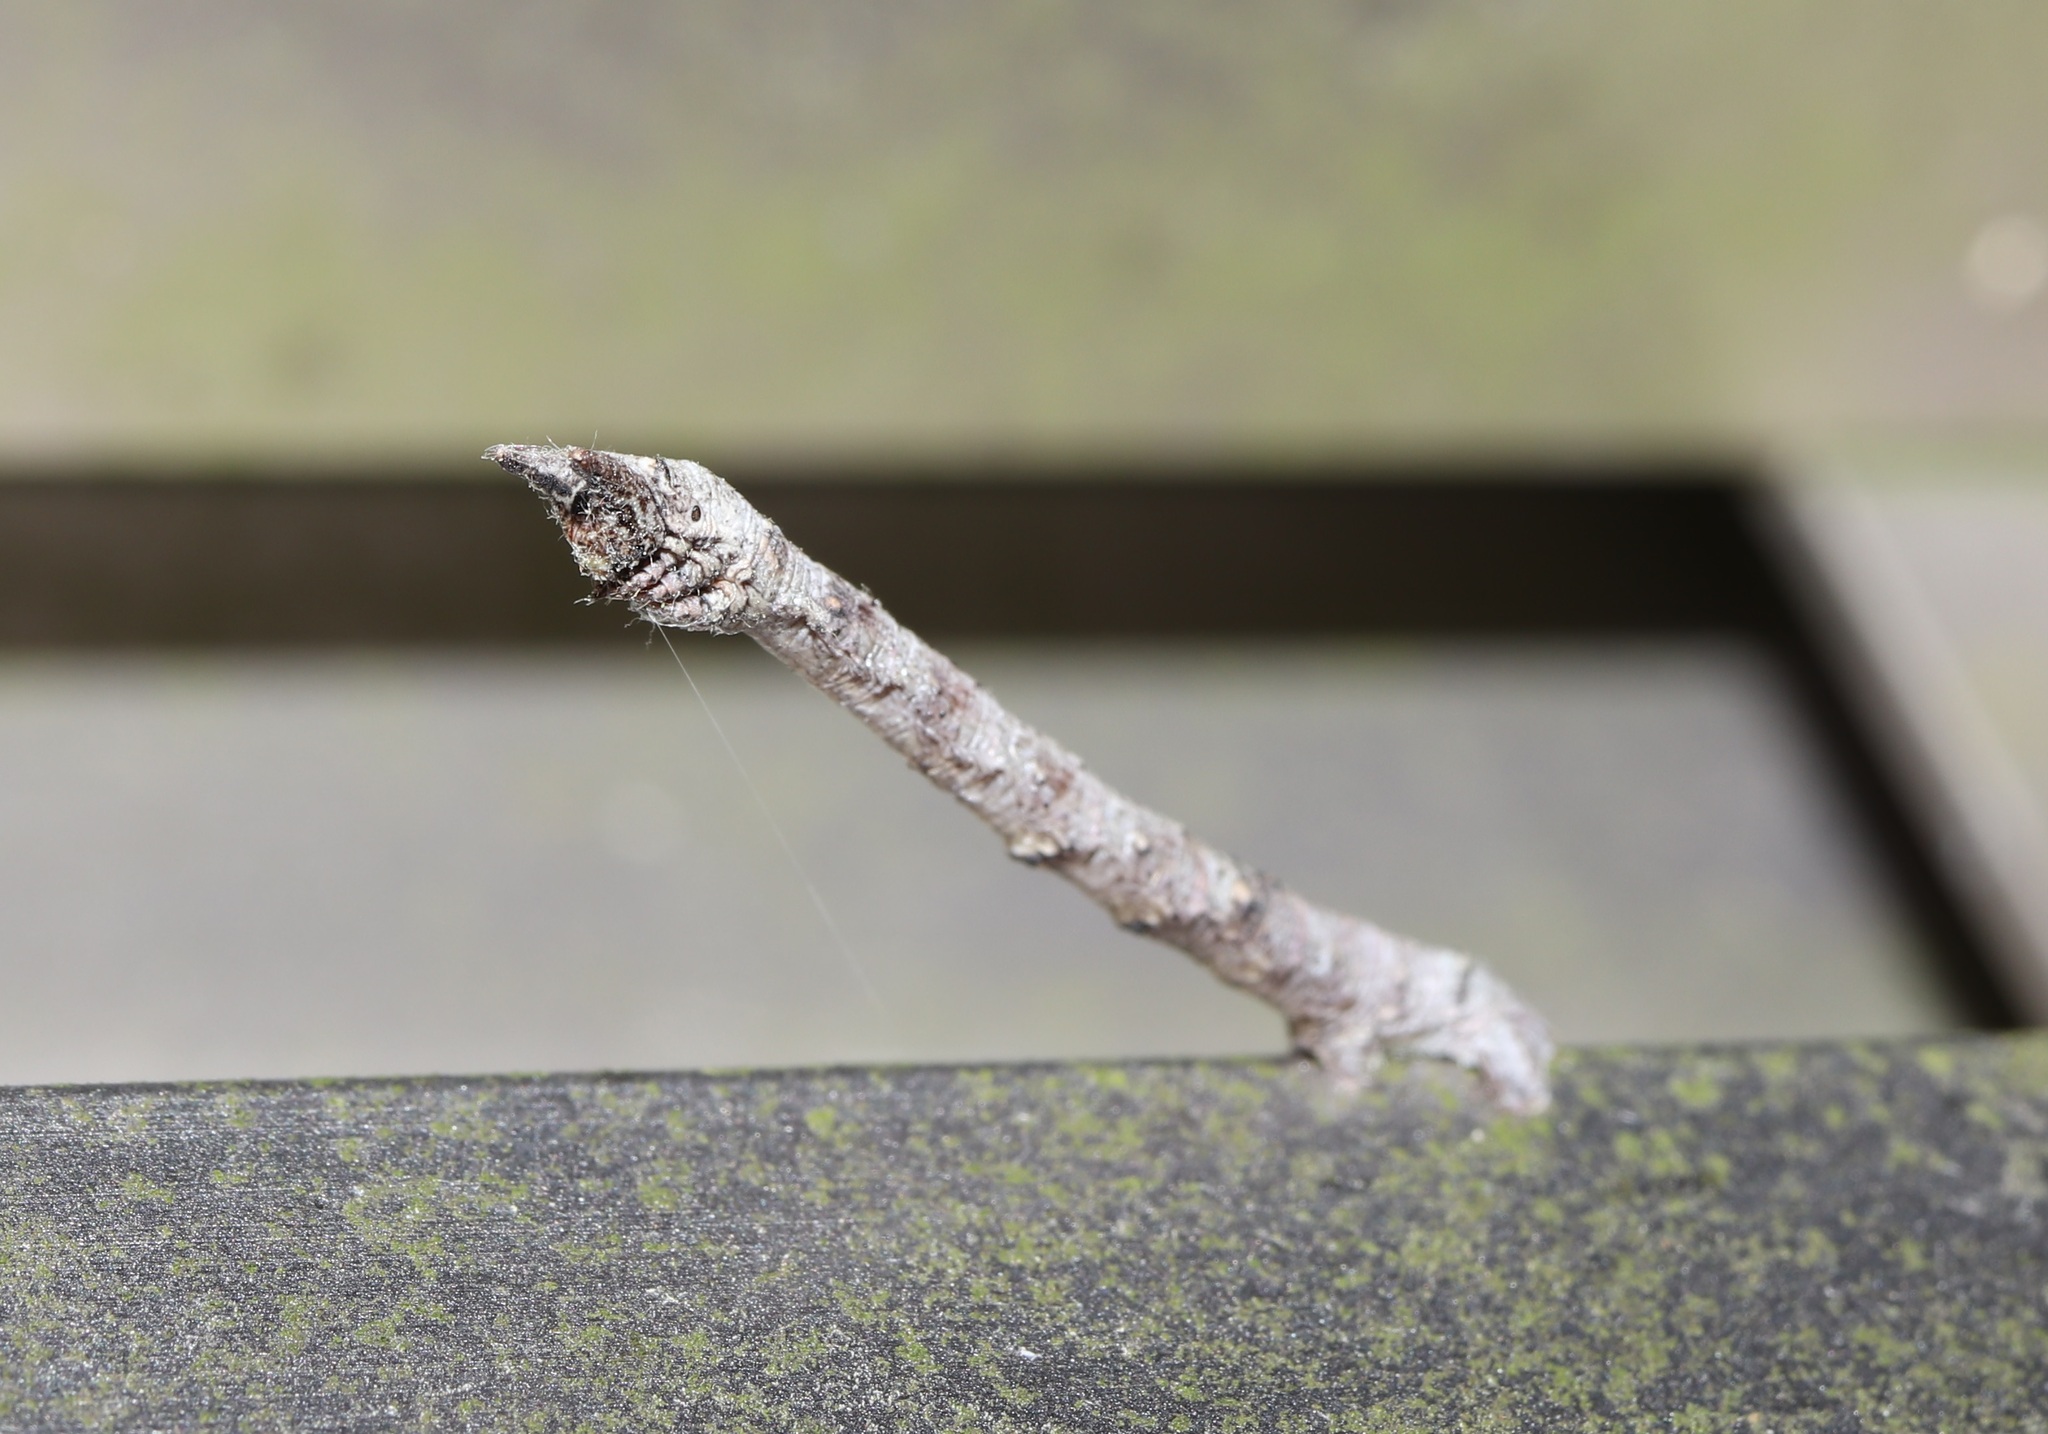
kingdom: Animalia
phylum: Arthropoda
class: Insecta
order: Lepidoptera
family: Geometridae
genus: Biston
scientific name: Biston robustum
